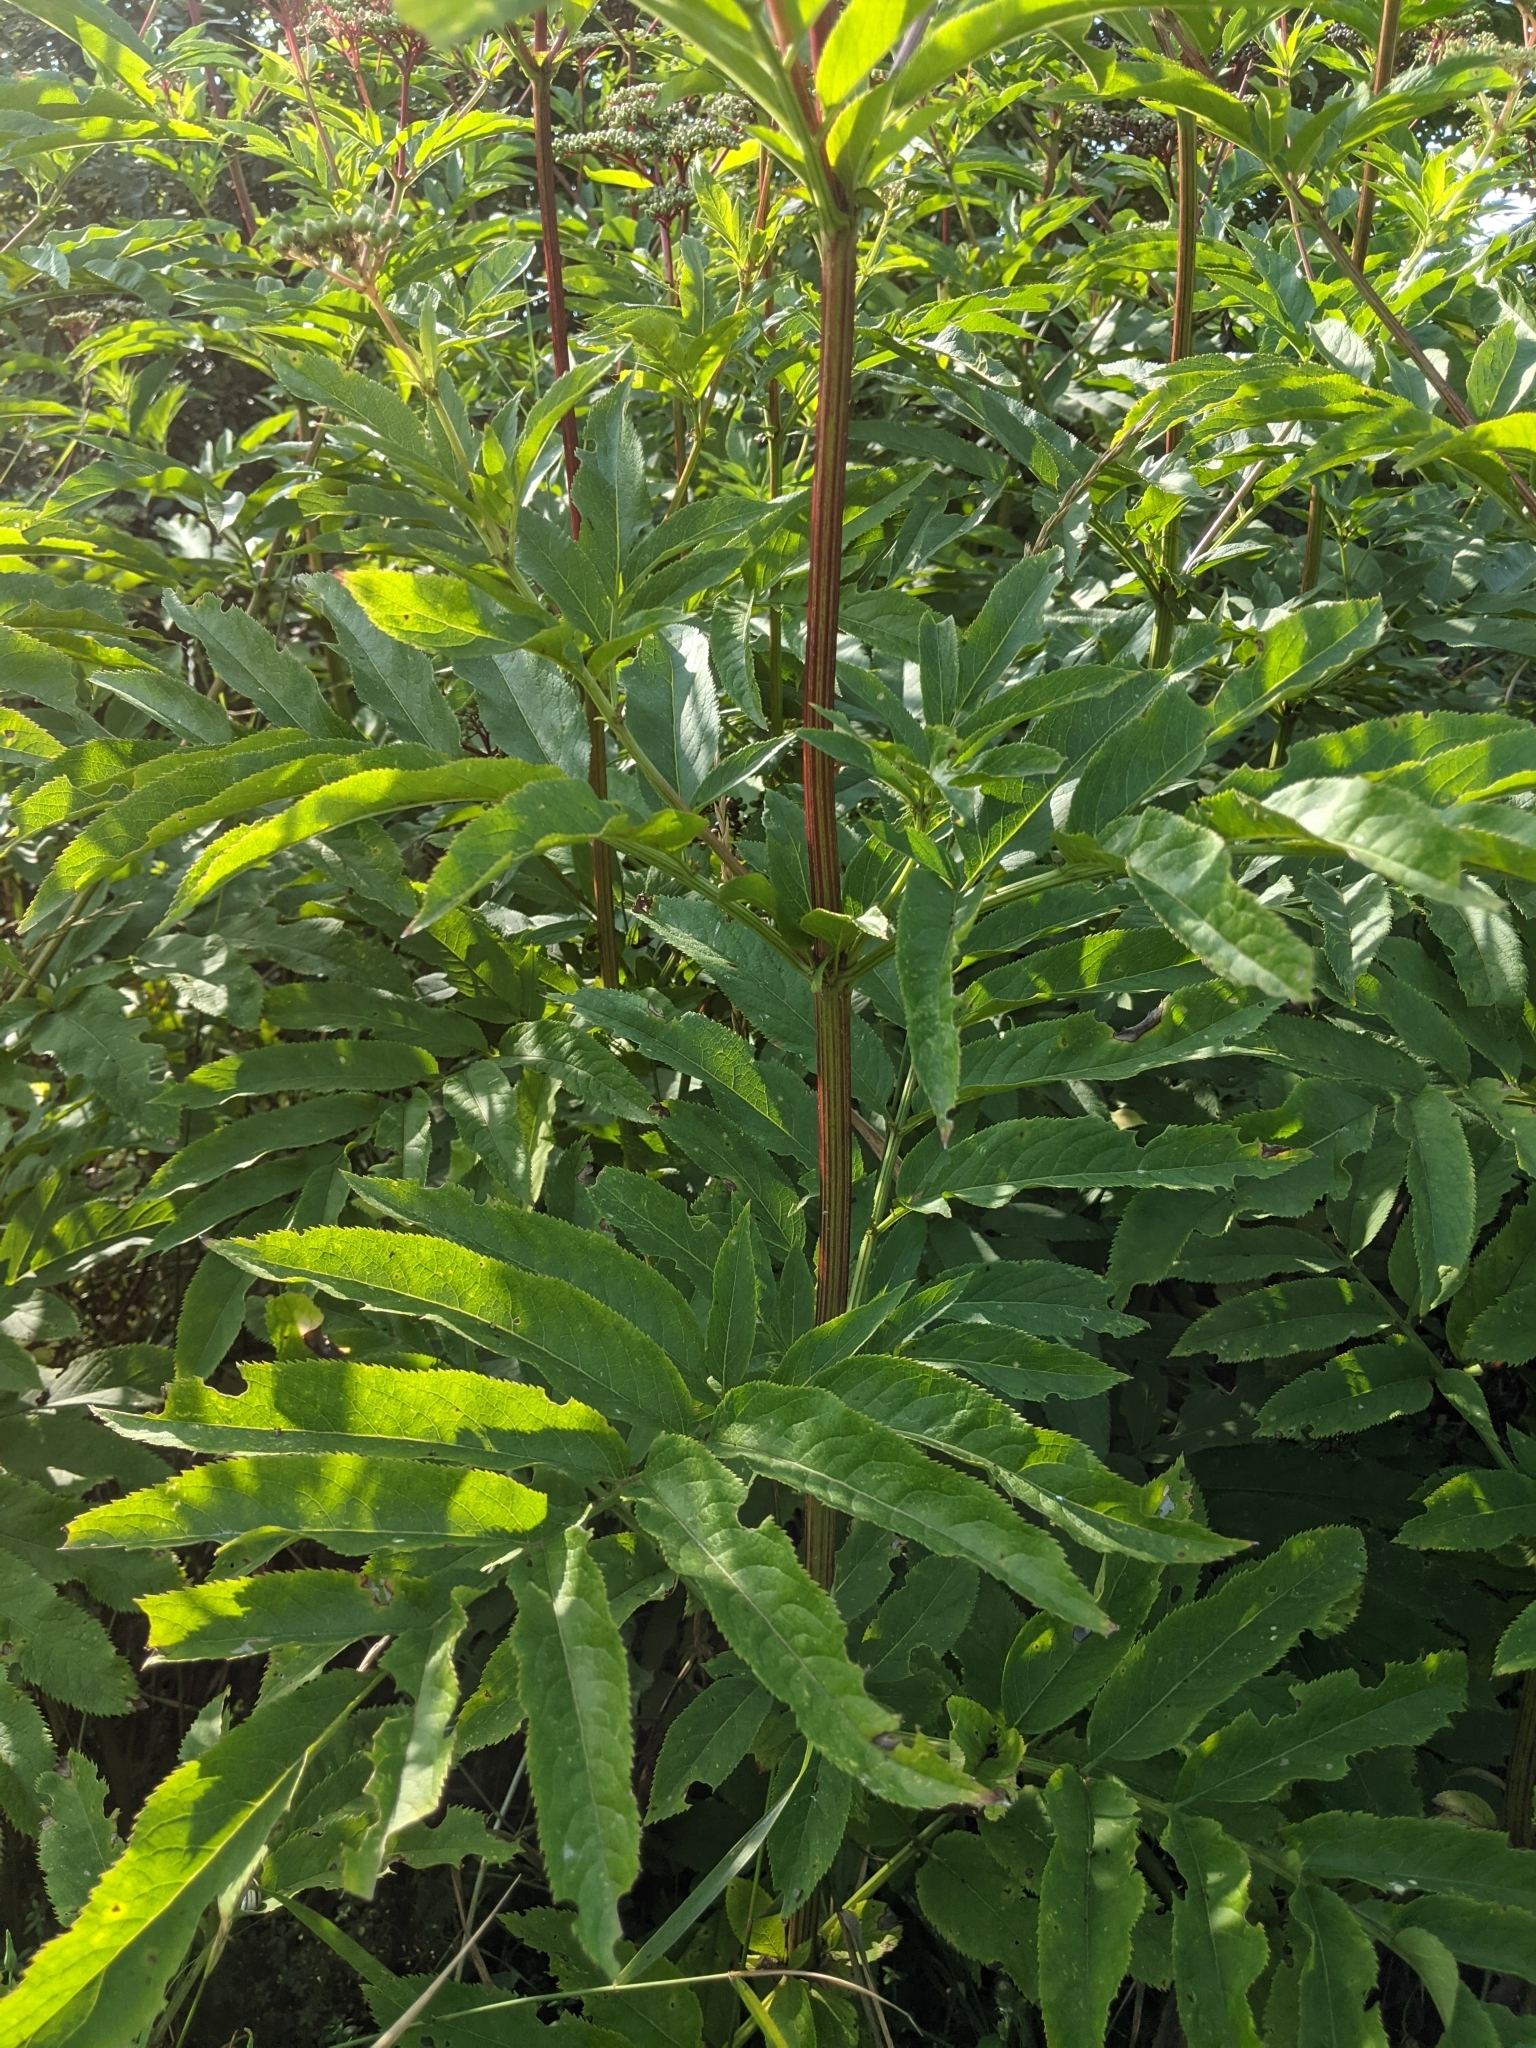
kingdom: Plantae
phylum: Tracheophyta
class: Magnoliopsida
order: Dipsacales
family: Viburnaceae
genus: Sambucus
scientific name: Sambucus ebulus
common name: Dwarf elder
